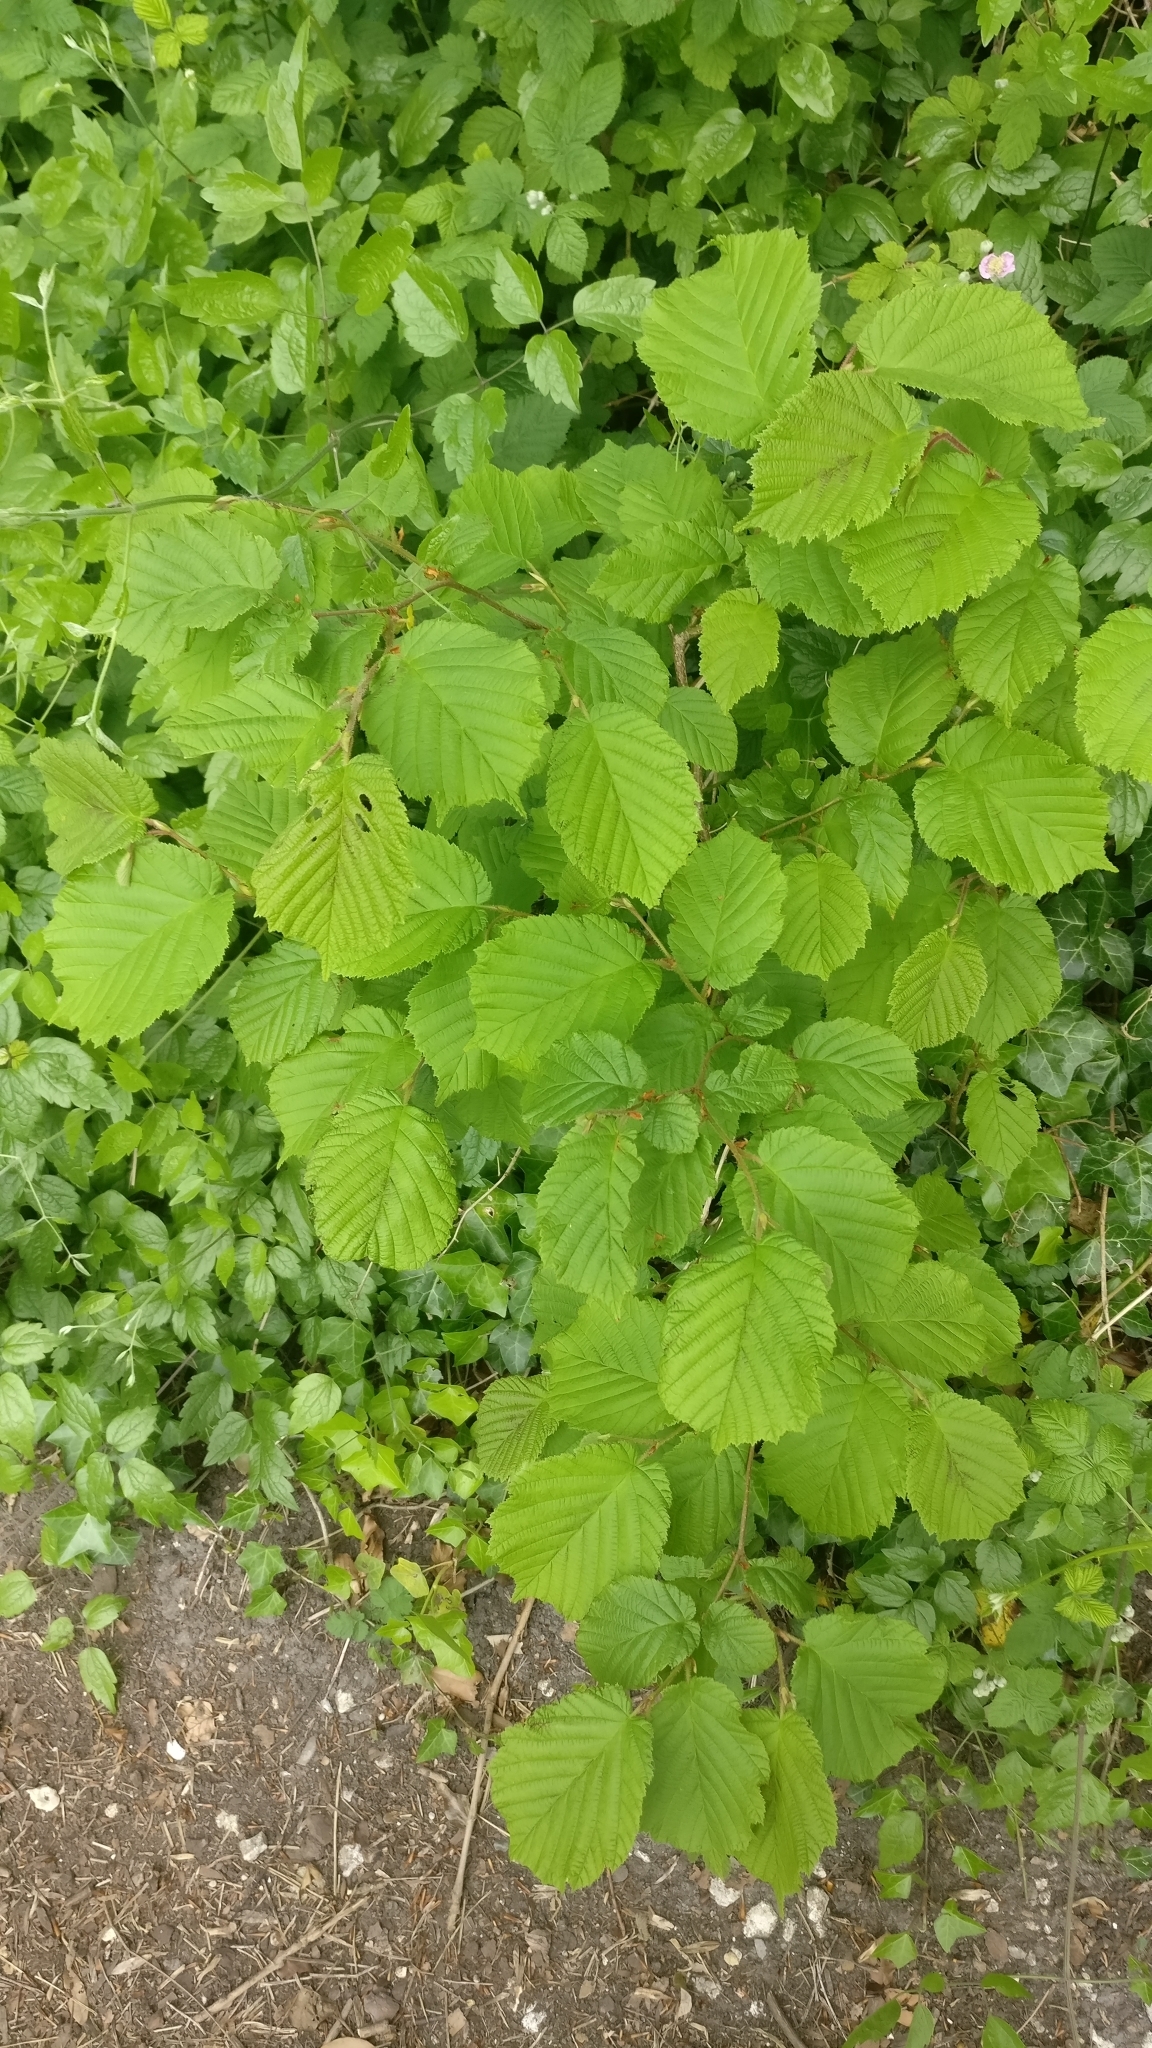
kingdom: Plantae
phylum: Tracheophyta
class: Magnoliopsida
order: Fagales
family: Betulaceae
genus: Corylus
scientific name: Corylus avellana
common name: European hazel
